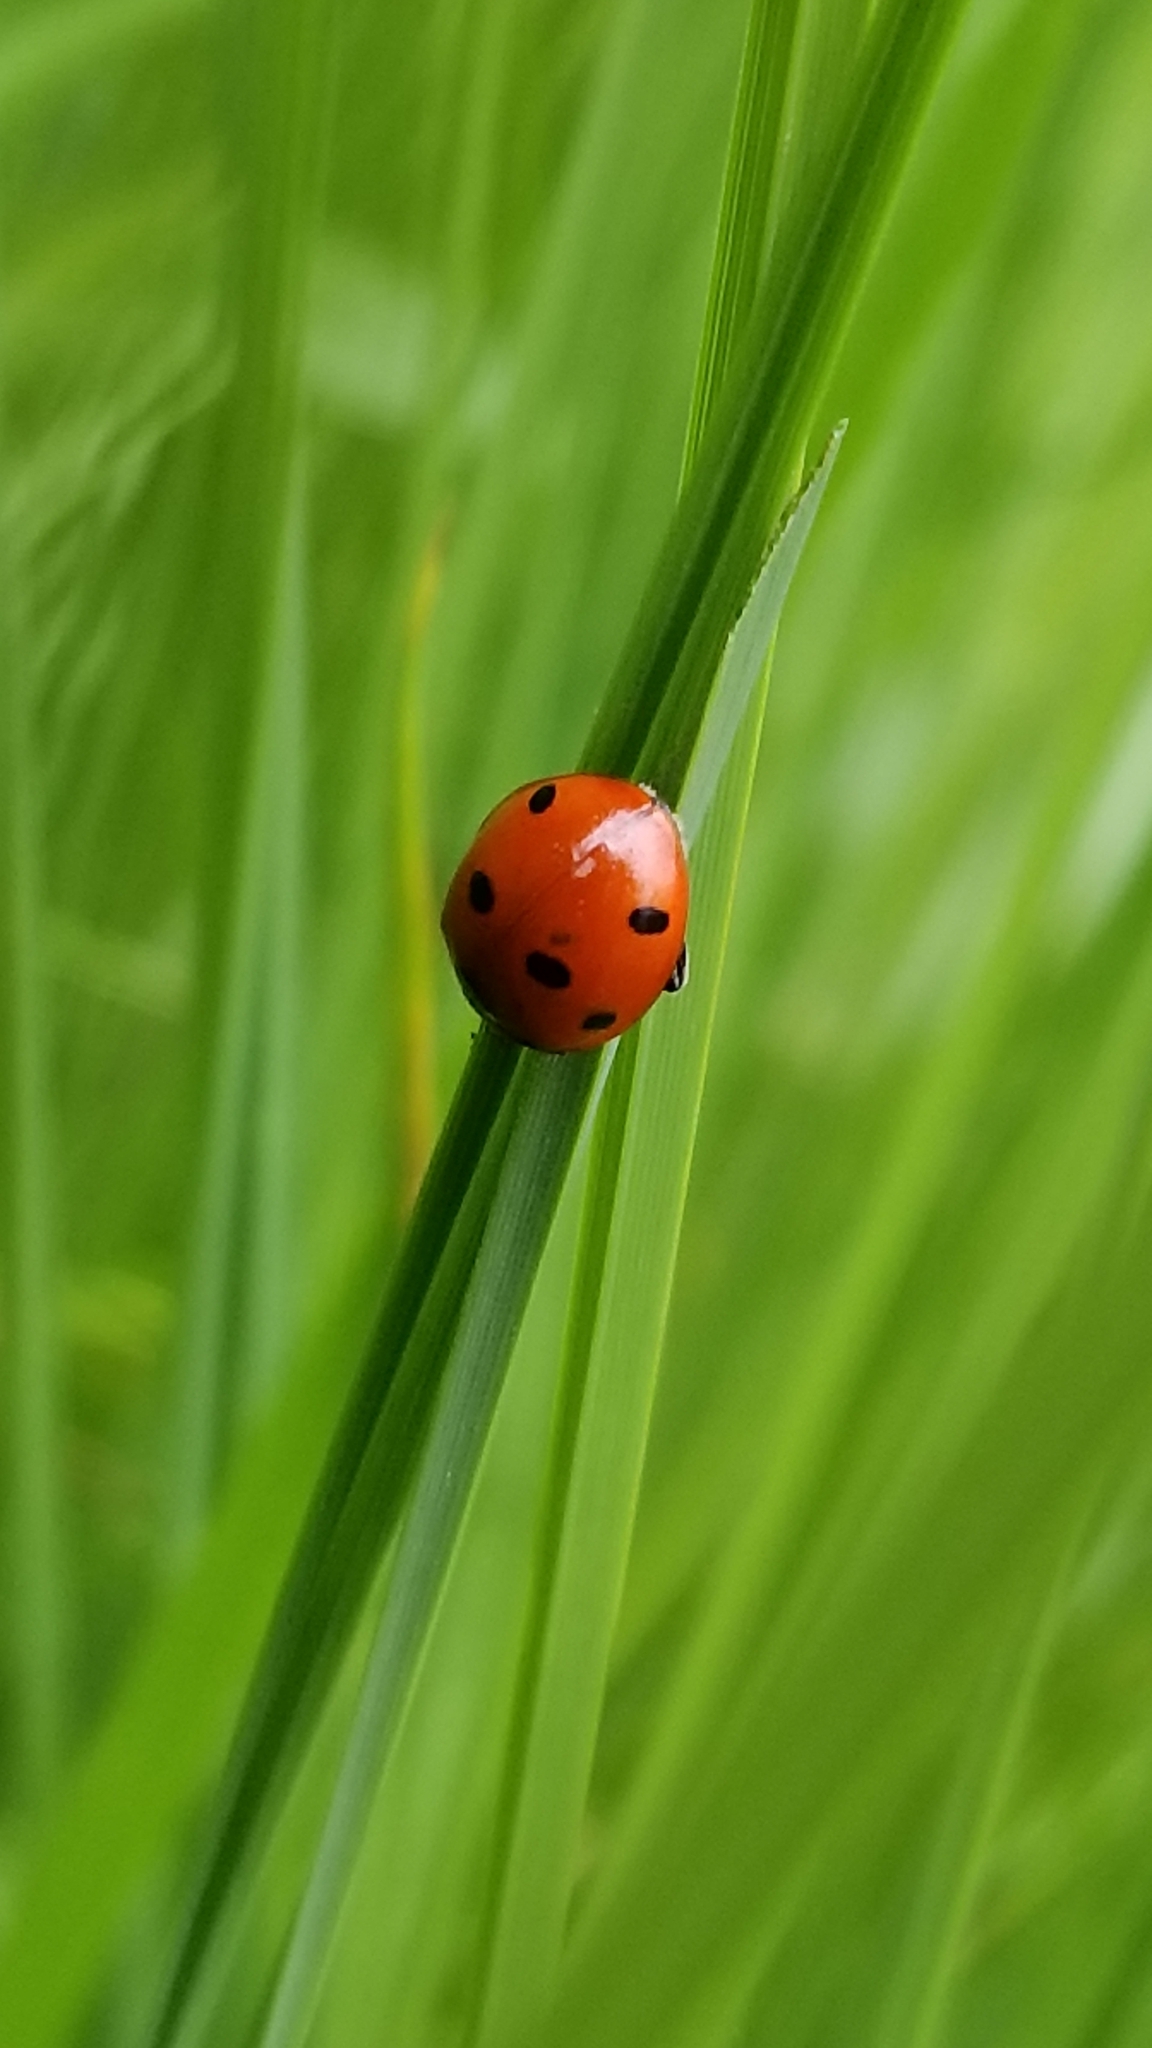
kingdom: Animalia
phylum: Arthropoda
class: Insecta
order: Coleoptera
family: Coccinellidae
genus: Coccinella
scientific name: Coccinella septempunctata
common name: Sevenspotted lady beetle
